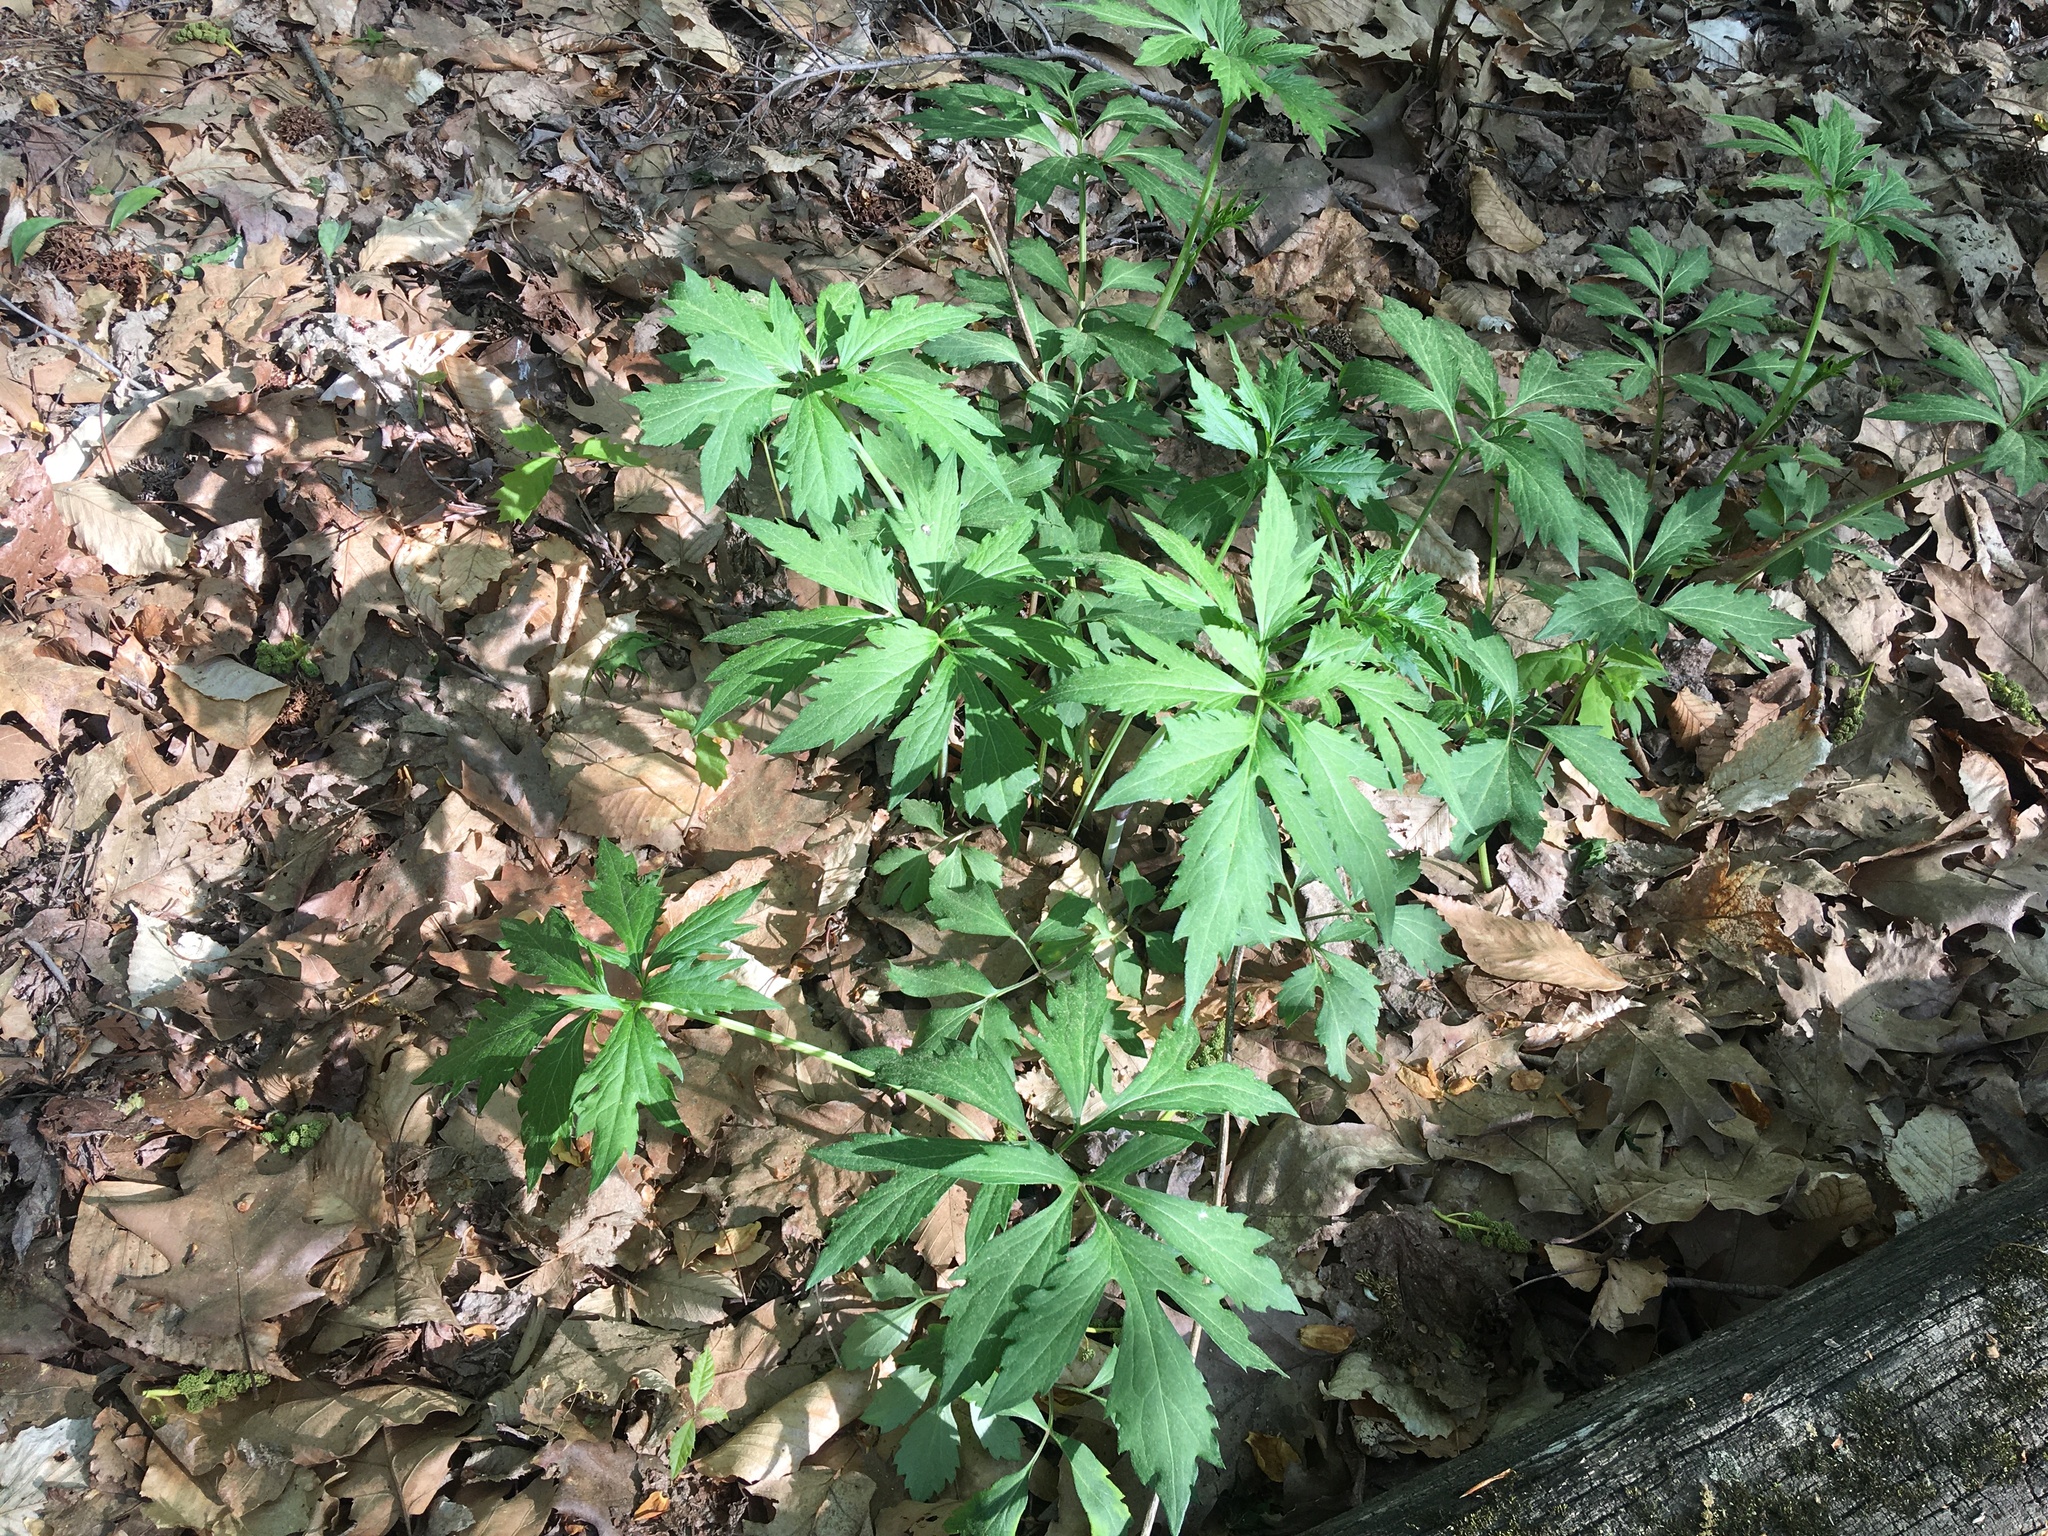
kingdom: Plantae
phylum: Tracheophyta
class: Magnoliopsida
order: Asterales
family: Asteraceae
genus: Rudbeckia
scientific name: Rudbeckia laciniata
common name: Coneflower
